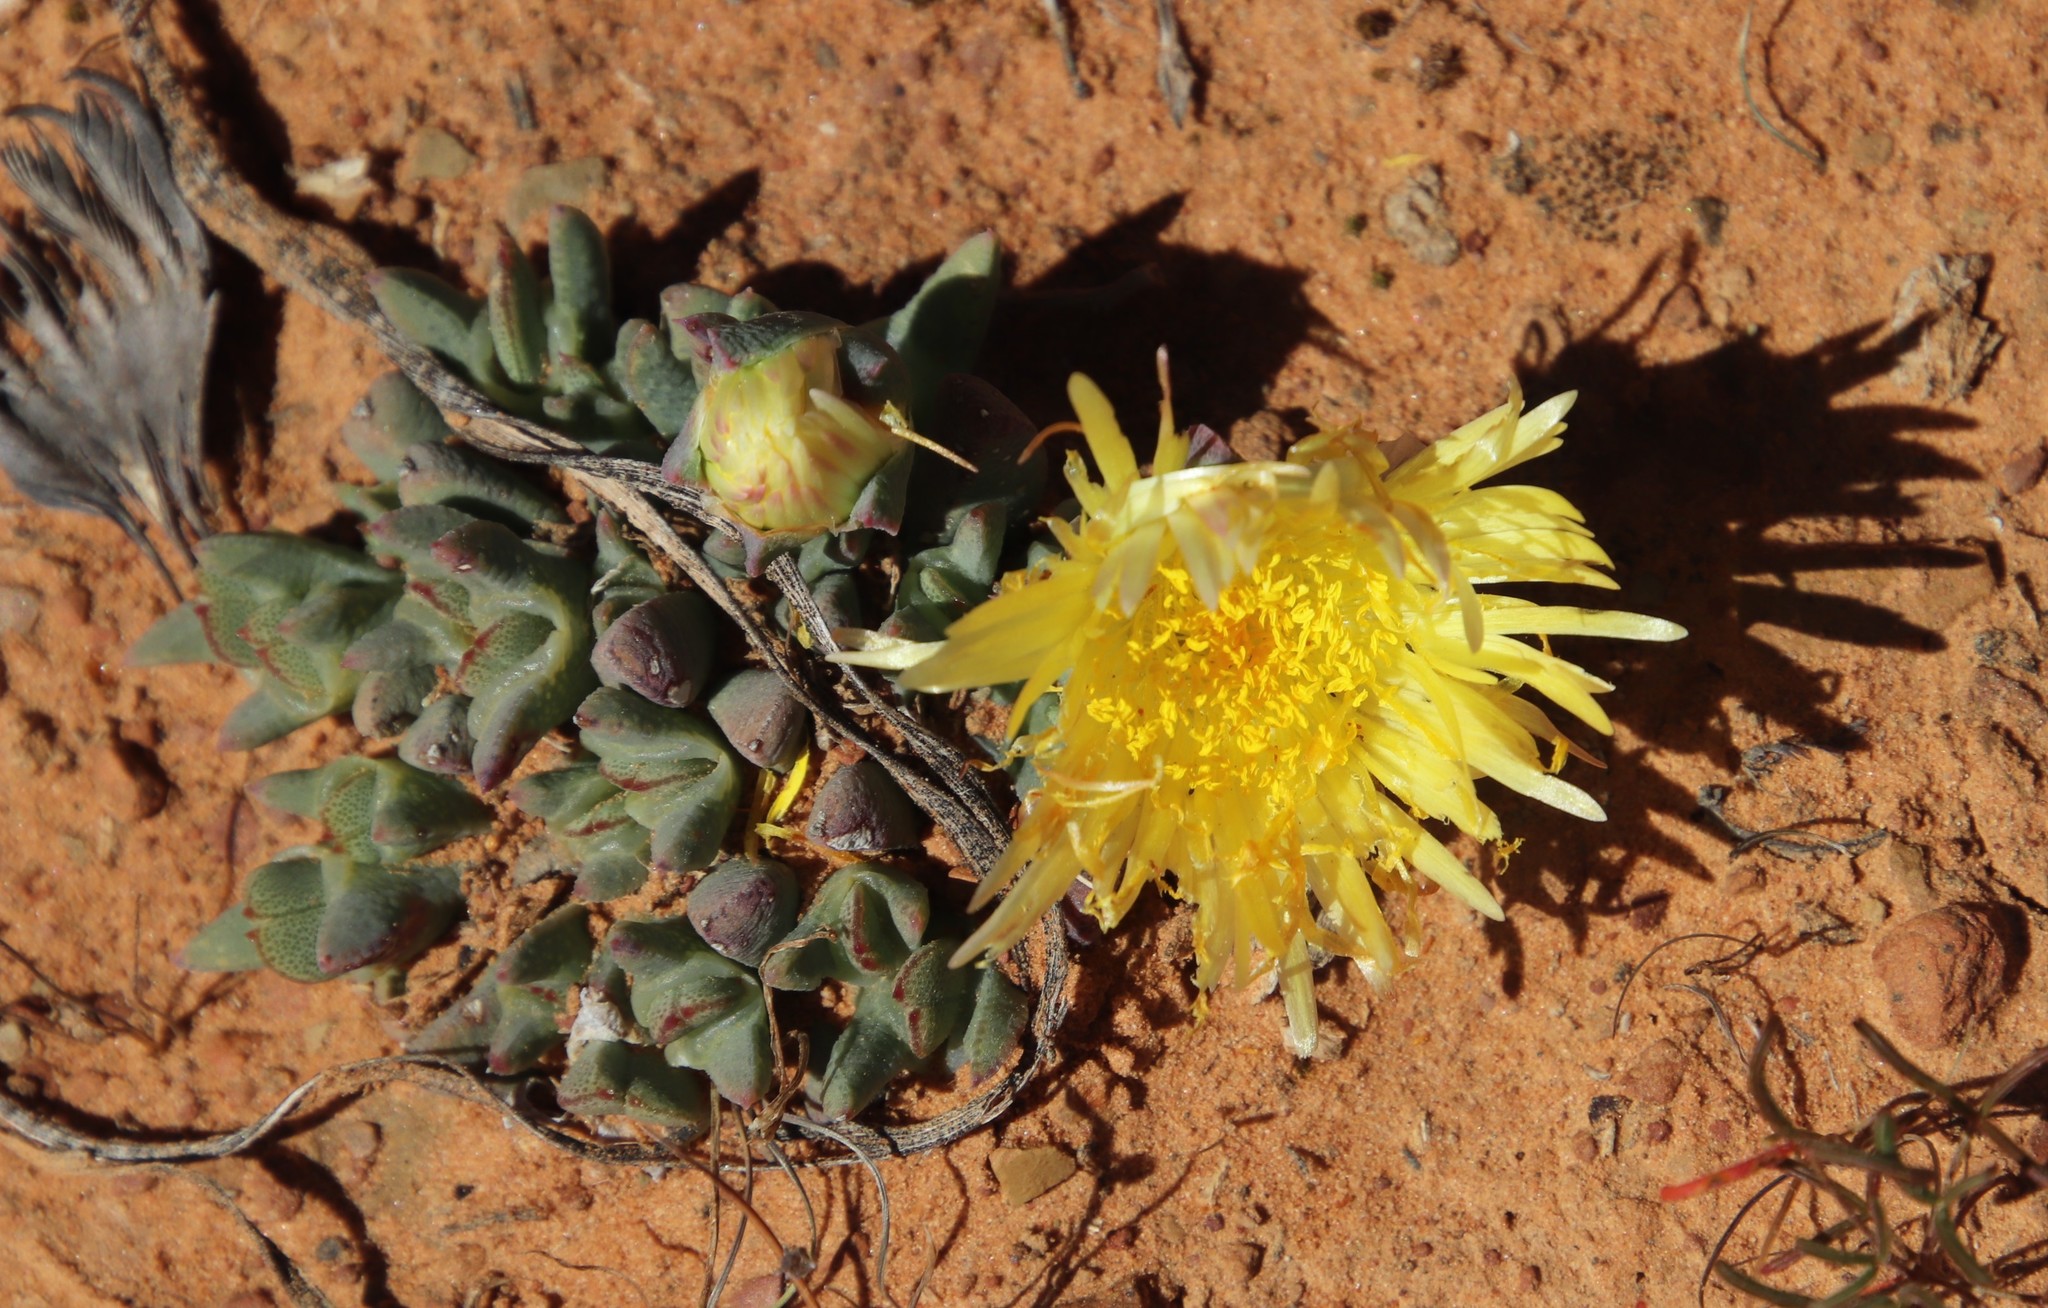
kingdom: Plantae
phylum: Tracheophyta
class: Magnoliopsida
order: Caryophyllales
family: Aizoaceae
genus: Cheiridopsis
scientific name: Cheiridopsis namaquensis
